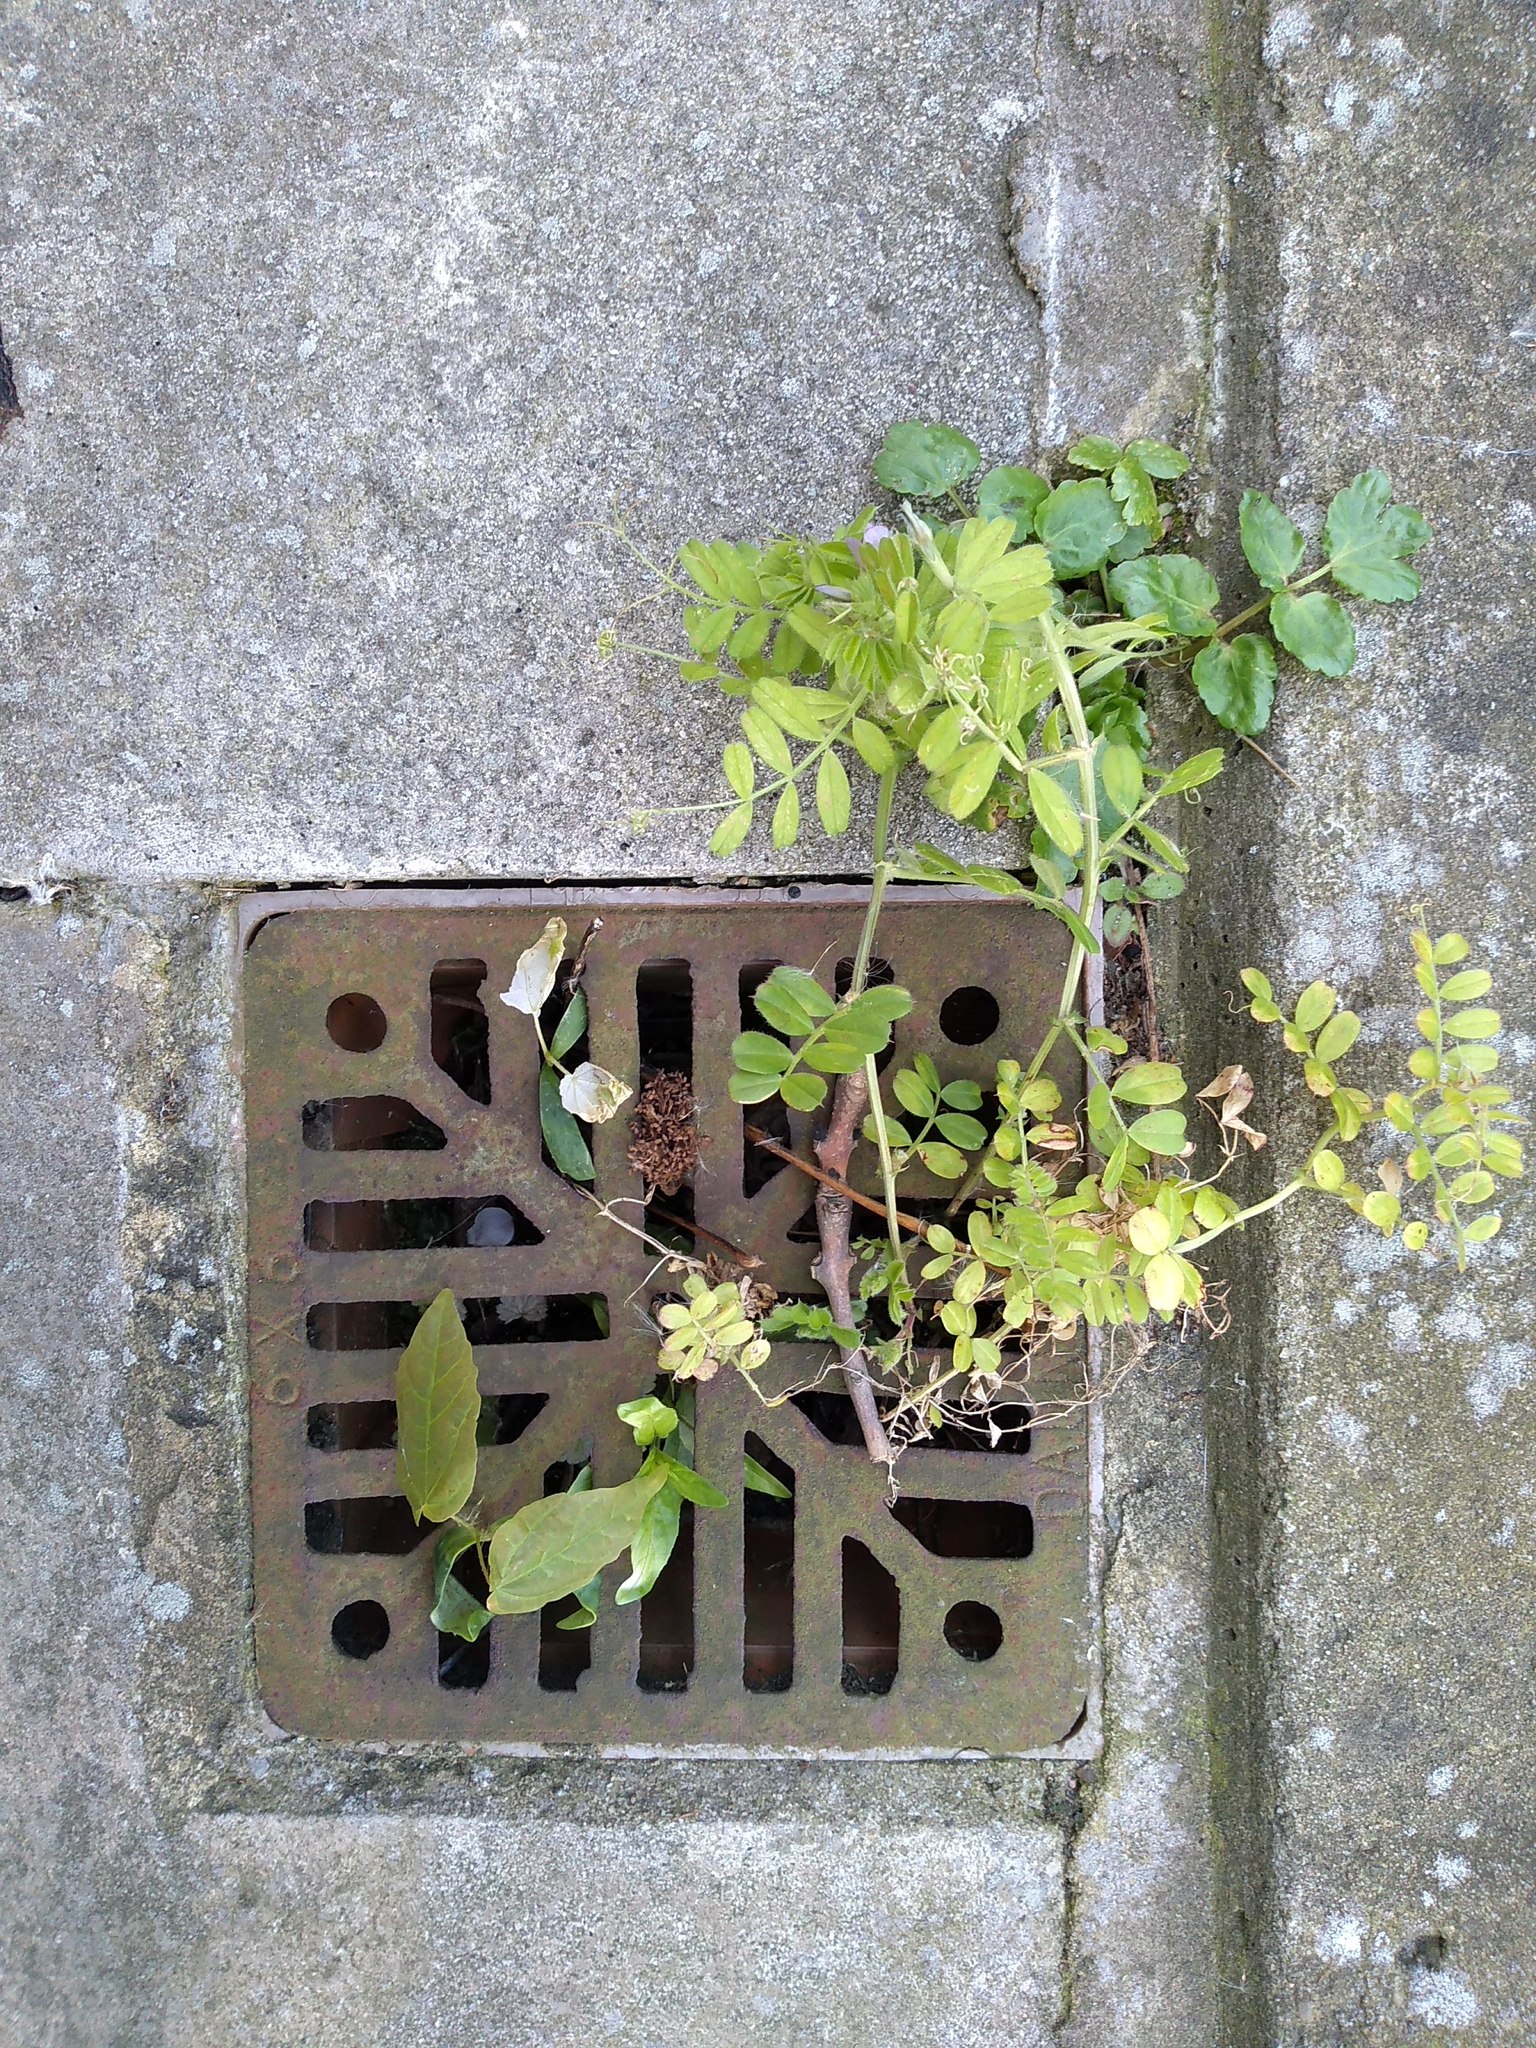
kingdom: Plantae
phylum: Tracheophyta
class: Magnoliopsida
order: Fabales
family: Fabaceae
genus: Vicia
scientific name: Vicia sativa
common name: Garden vetch
